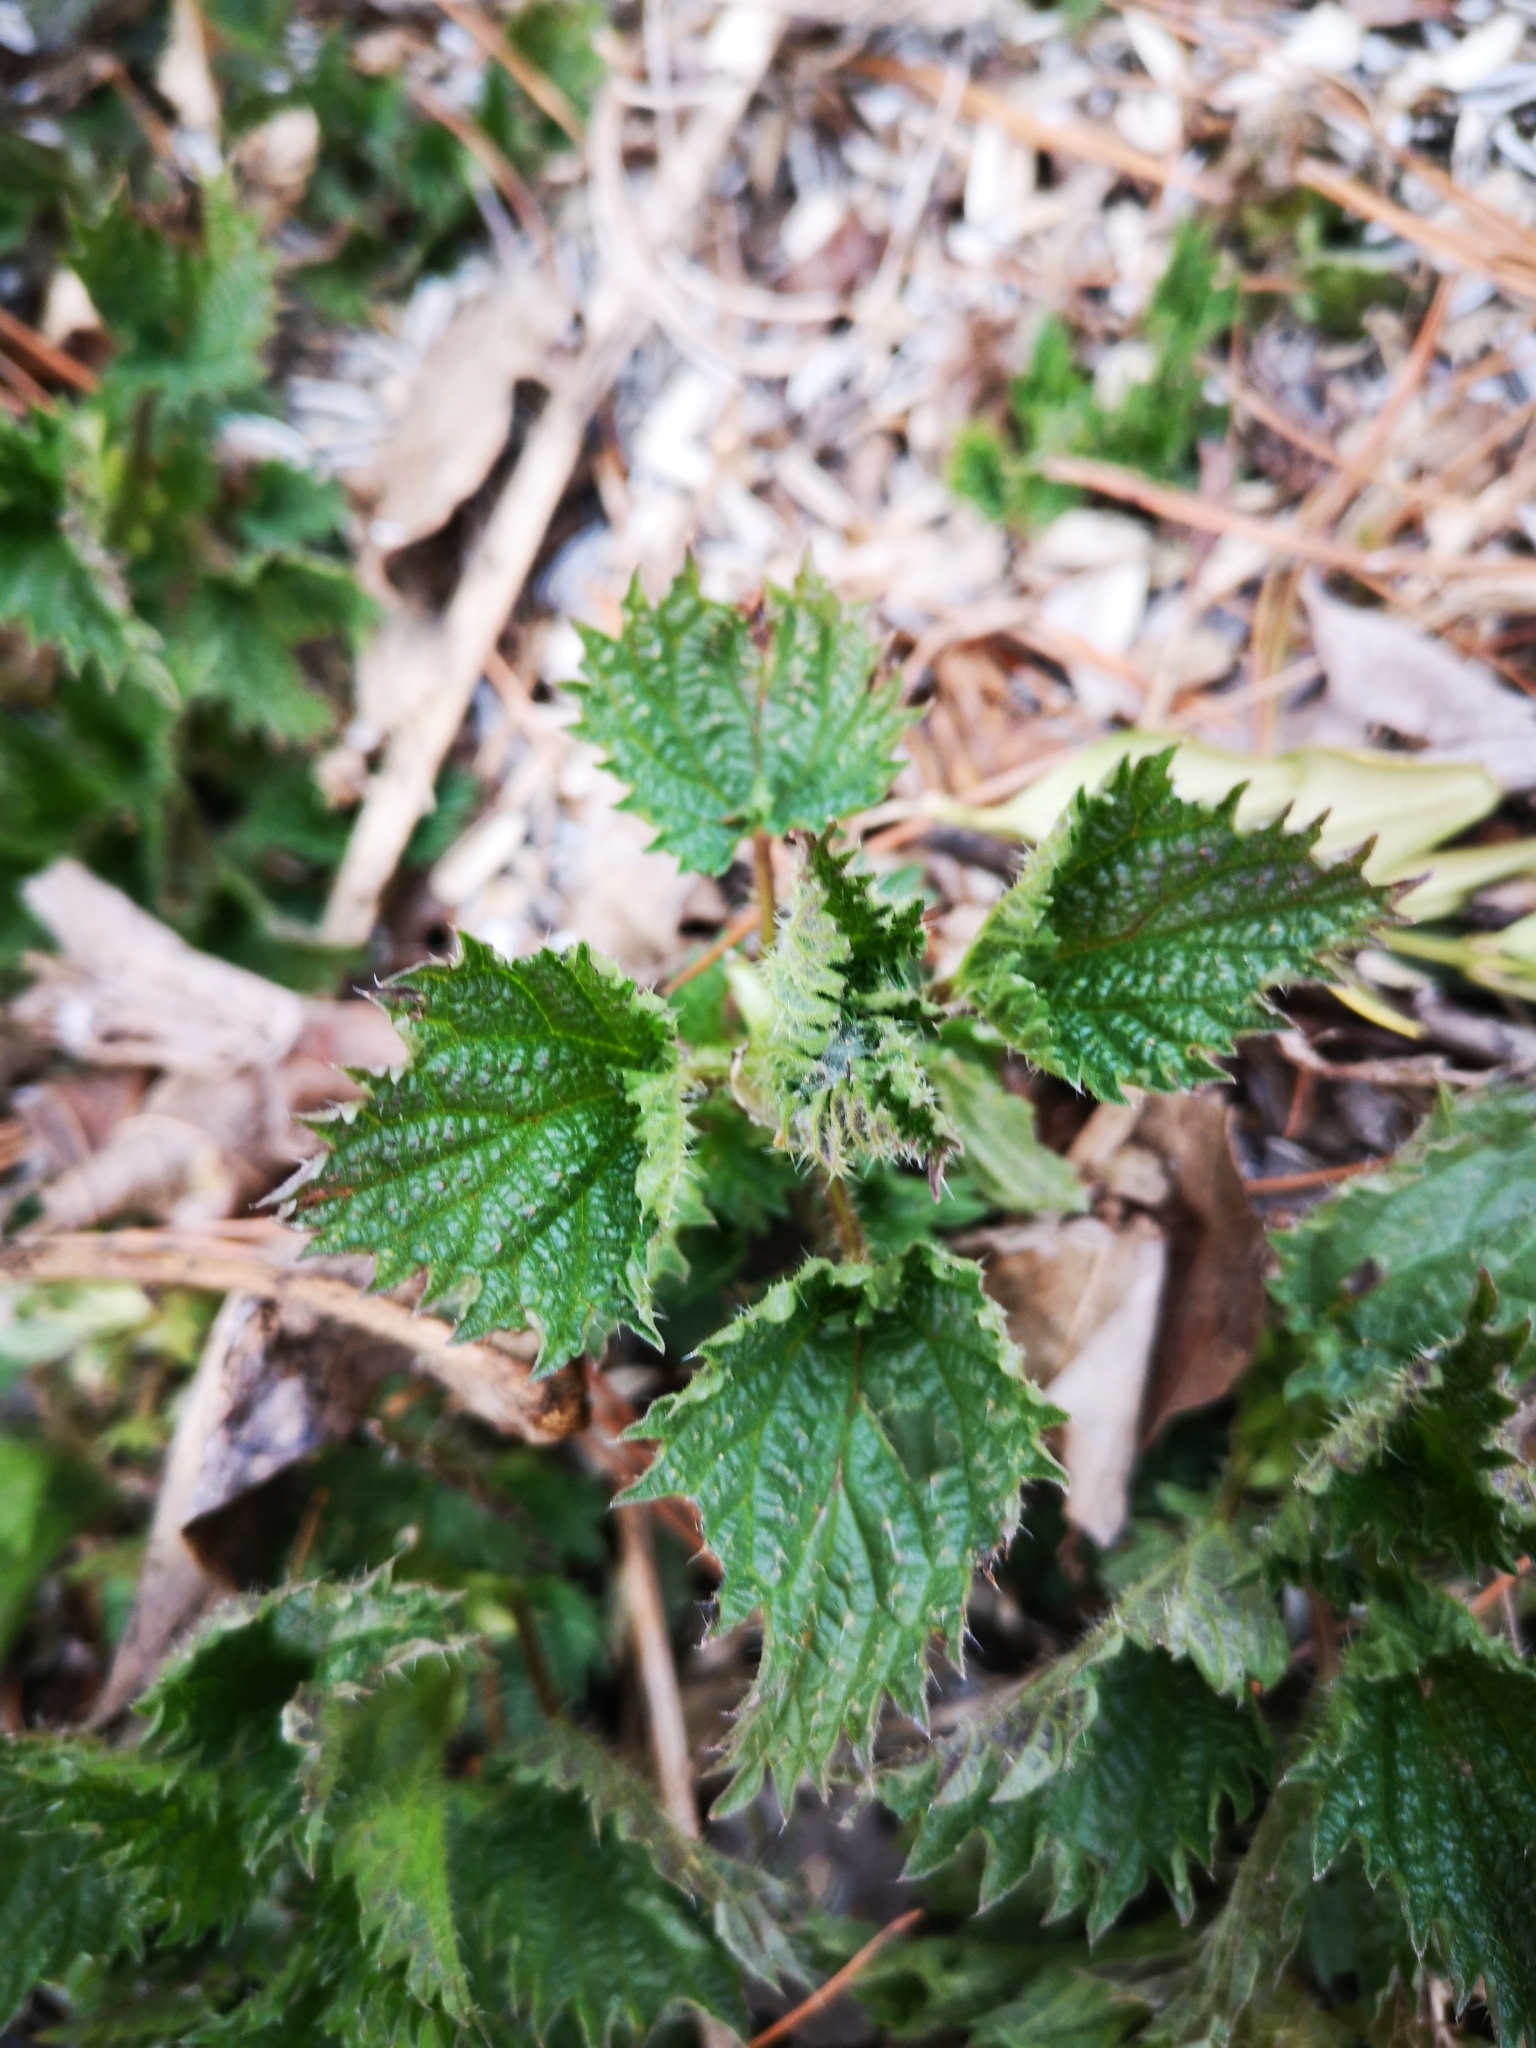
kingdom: Plantae
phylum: Tracheophyta
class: Magnoliopsida
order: Rosales
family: Urticaceae
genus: Urtica
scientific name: Urtica dioica
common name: Common nettle
